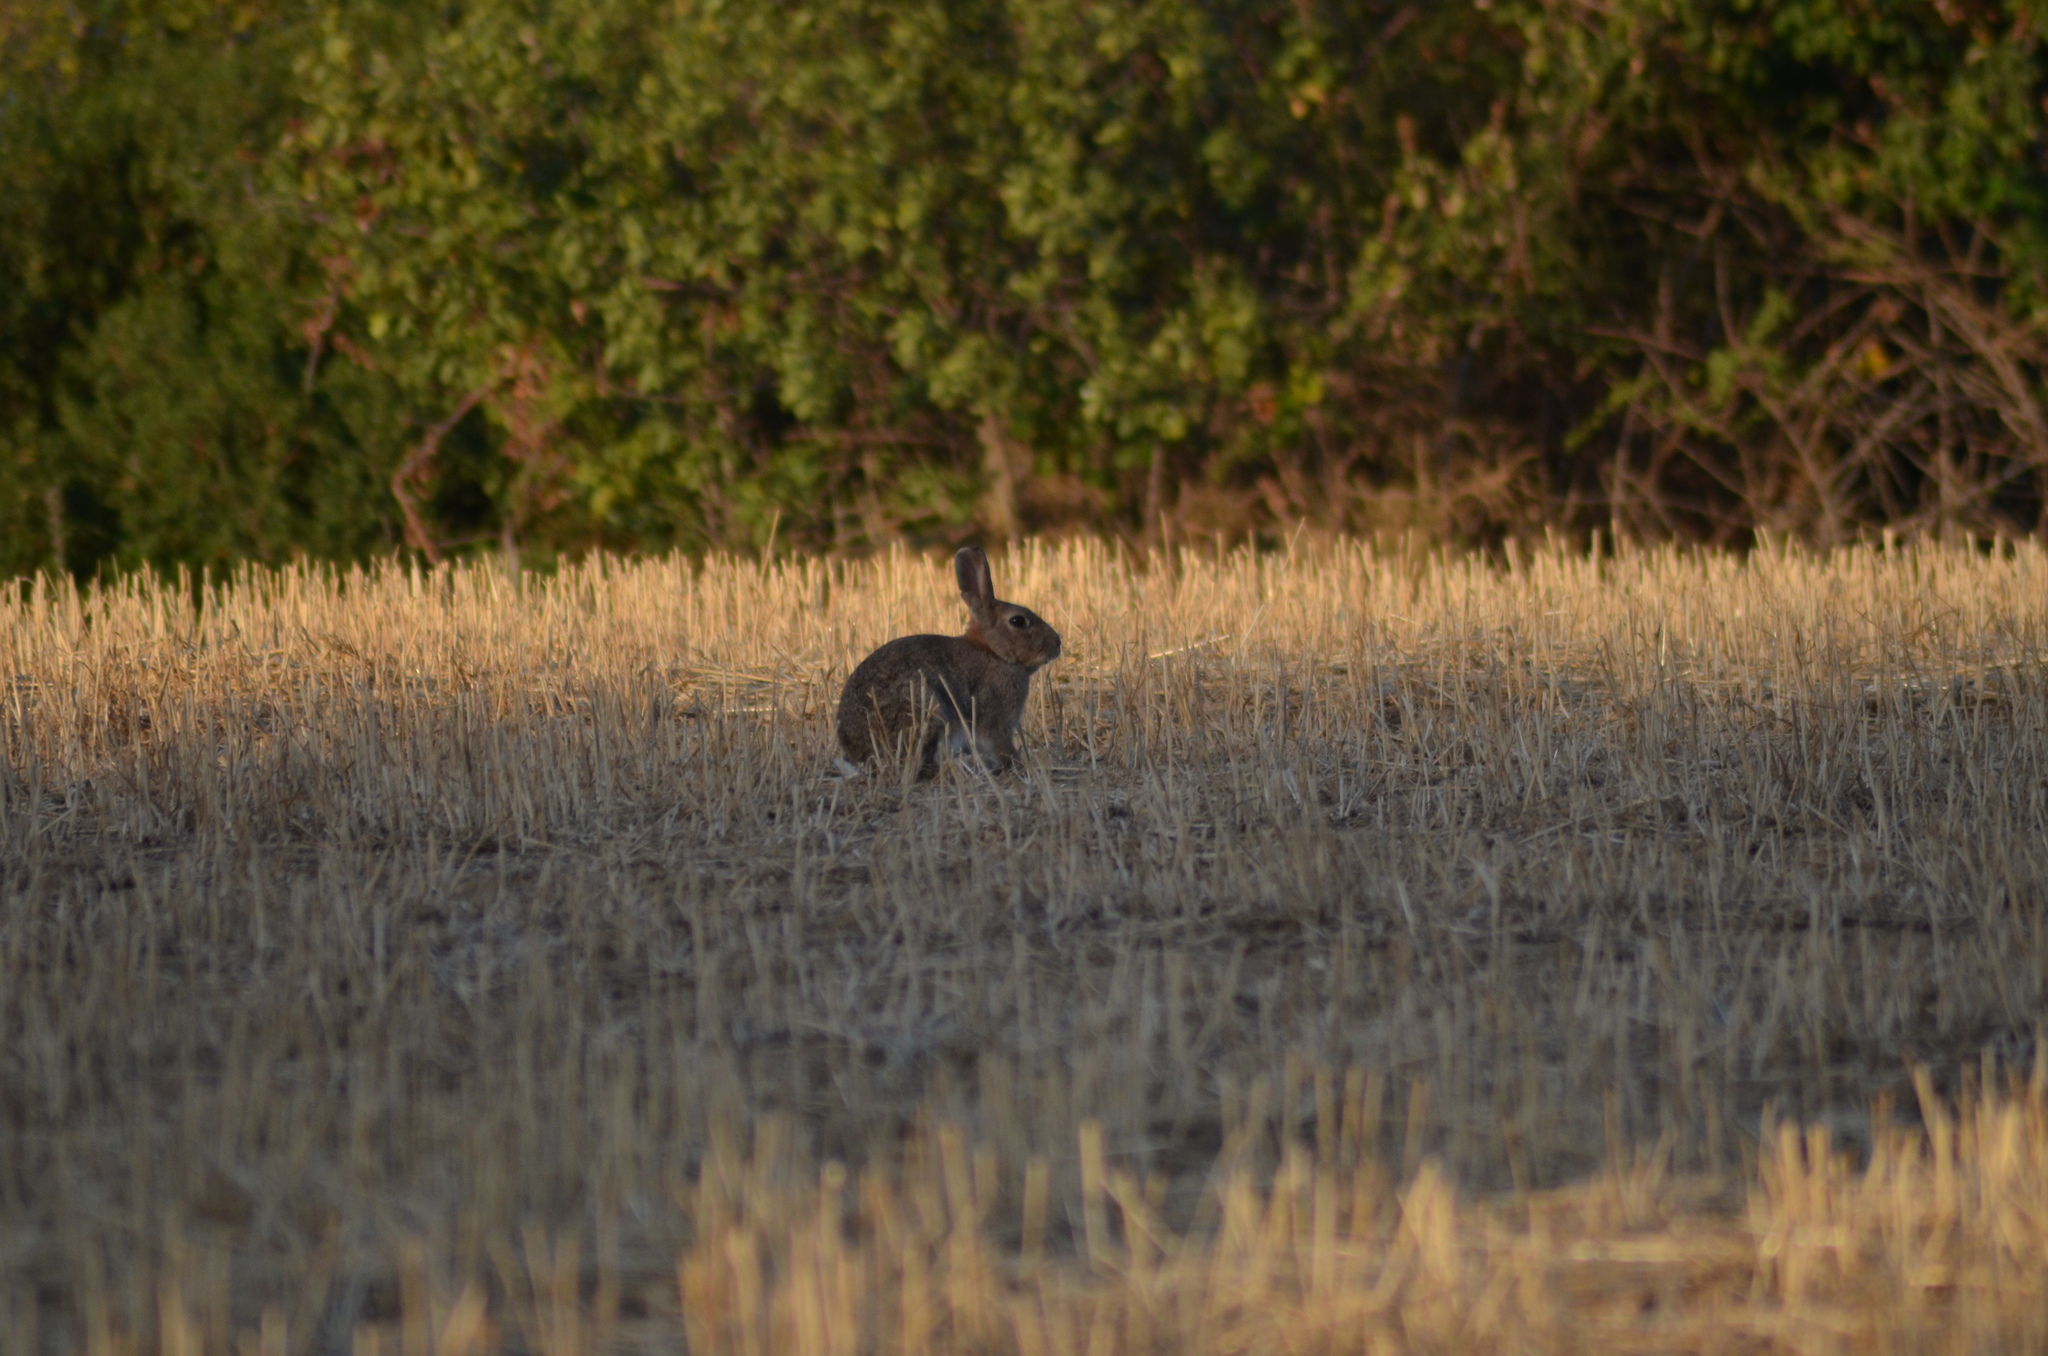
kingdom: Animalia
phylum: Chordata
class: Mammalia
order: Lagomorpha
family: Leporidae
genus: Oryctolagus
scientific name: Oryctolagus cuniculus
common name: European rabbit
